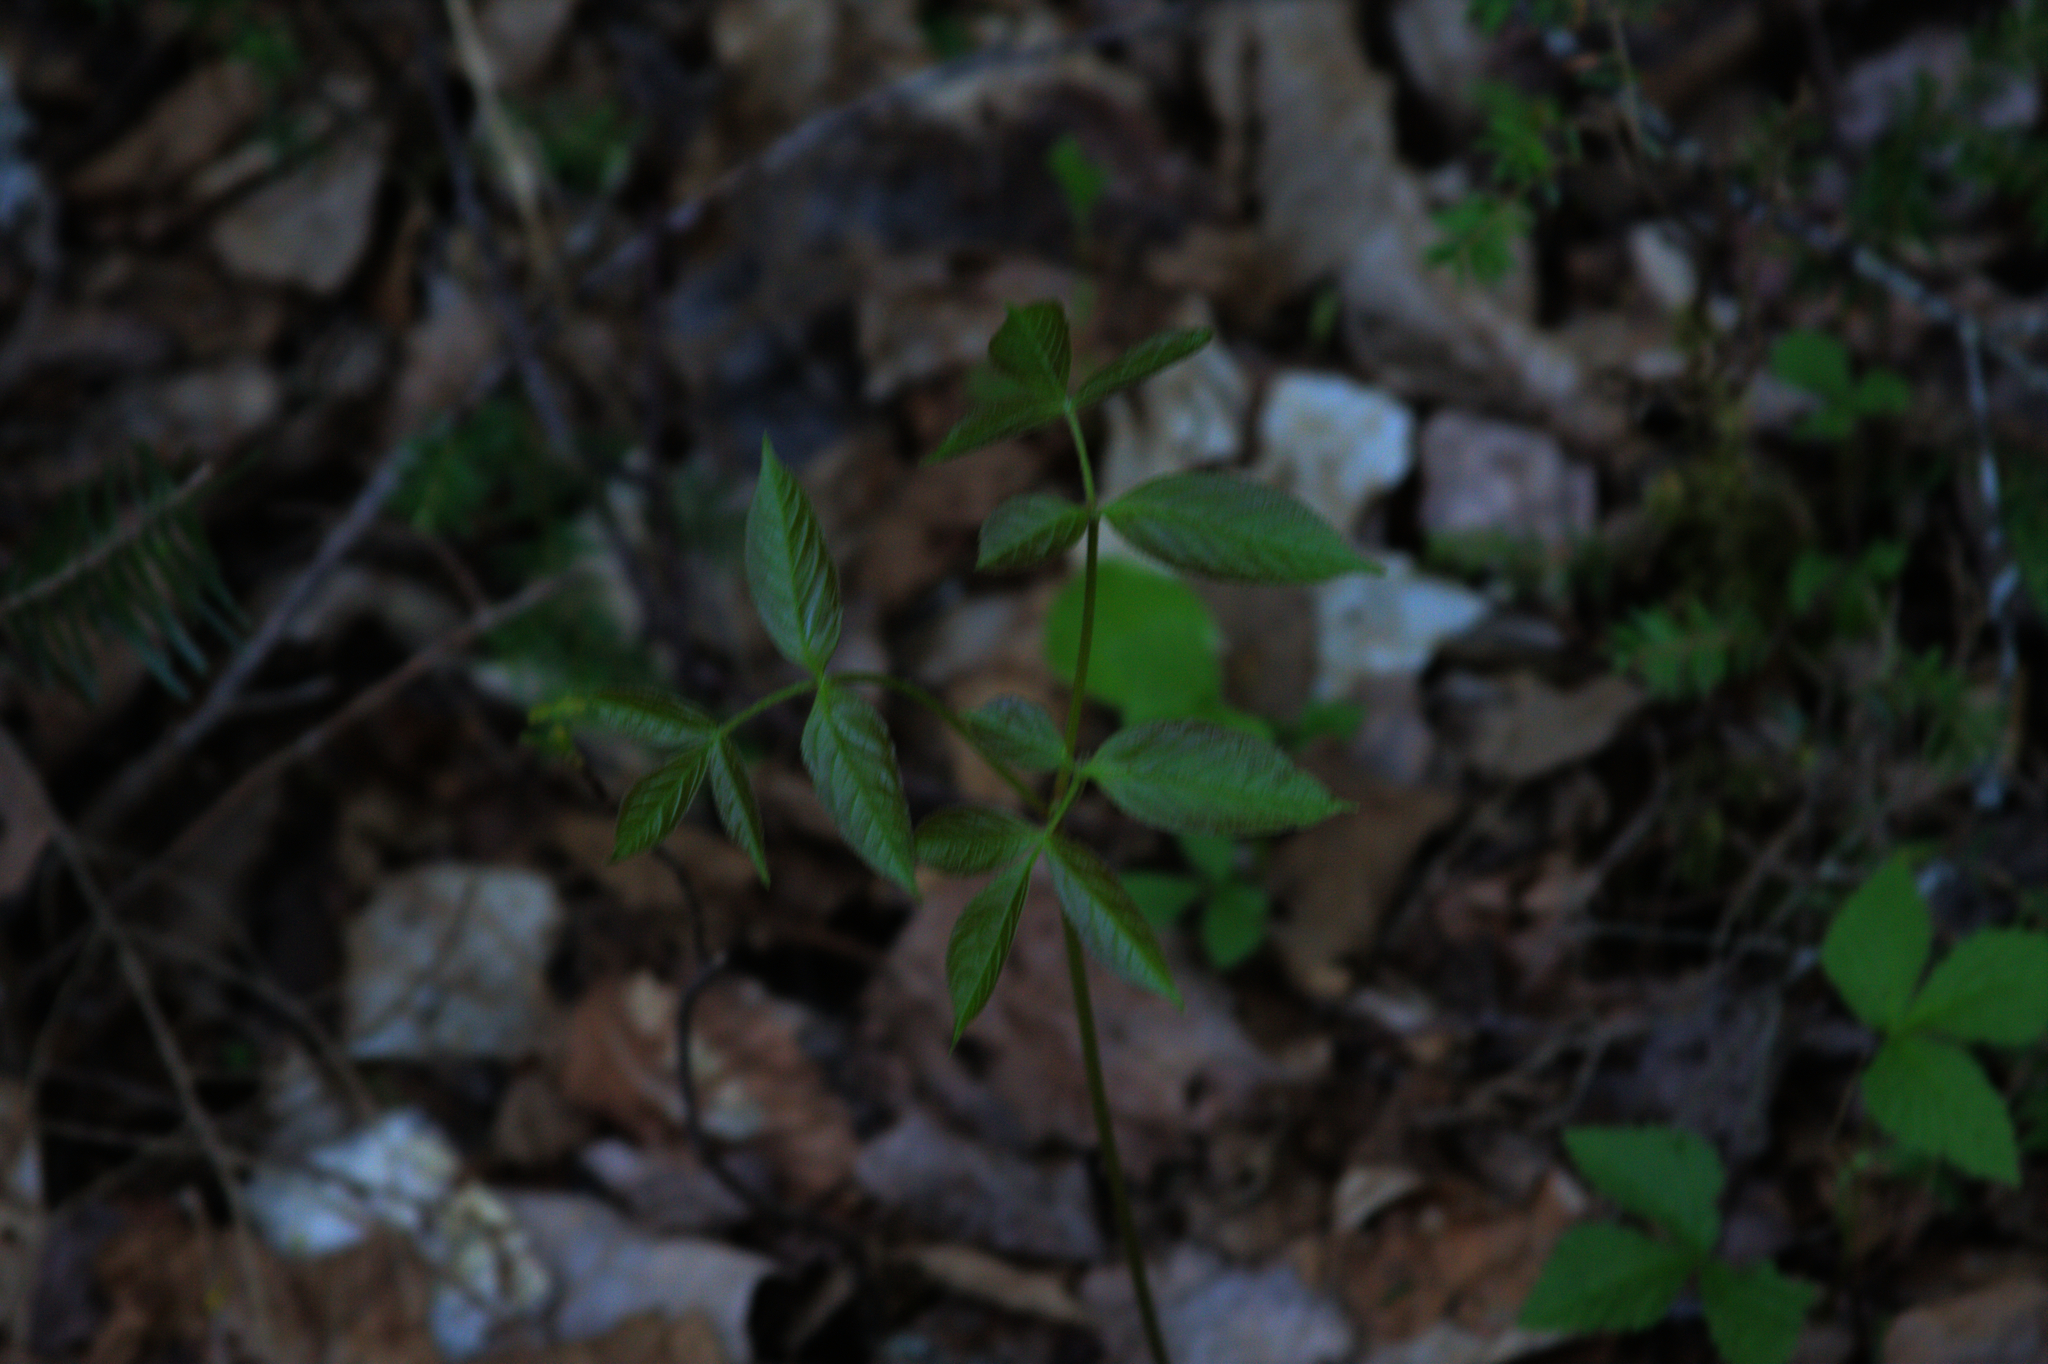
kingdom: Plantae
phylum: Tracheophyta
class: Magnoliopsida
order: Apiales
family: Araliaceae
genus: Aralia
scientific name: Aralia nudicaulis
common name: Wild sarsaparilla
